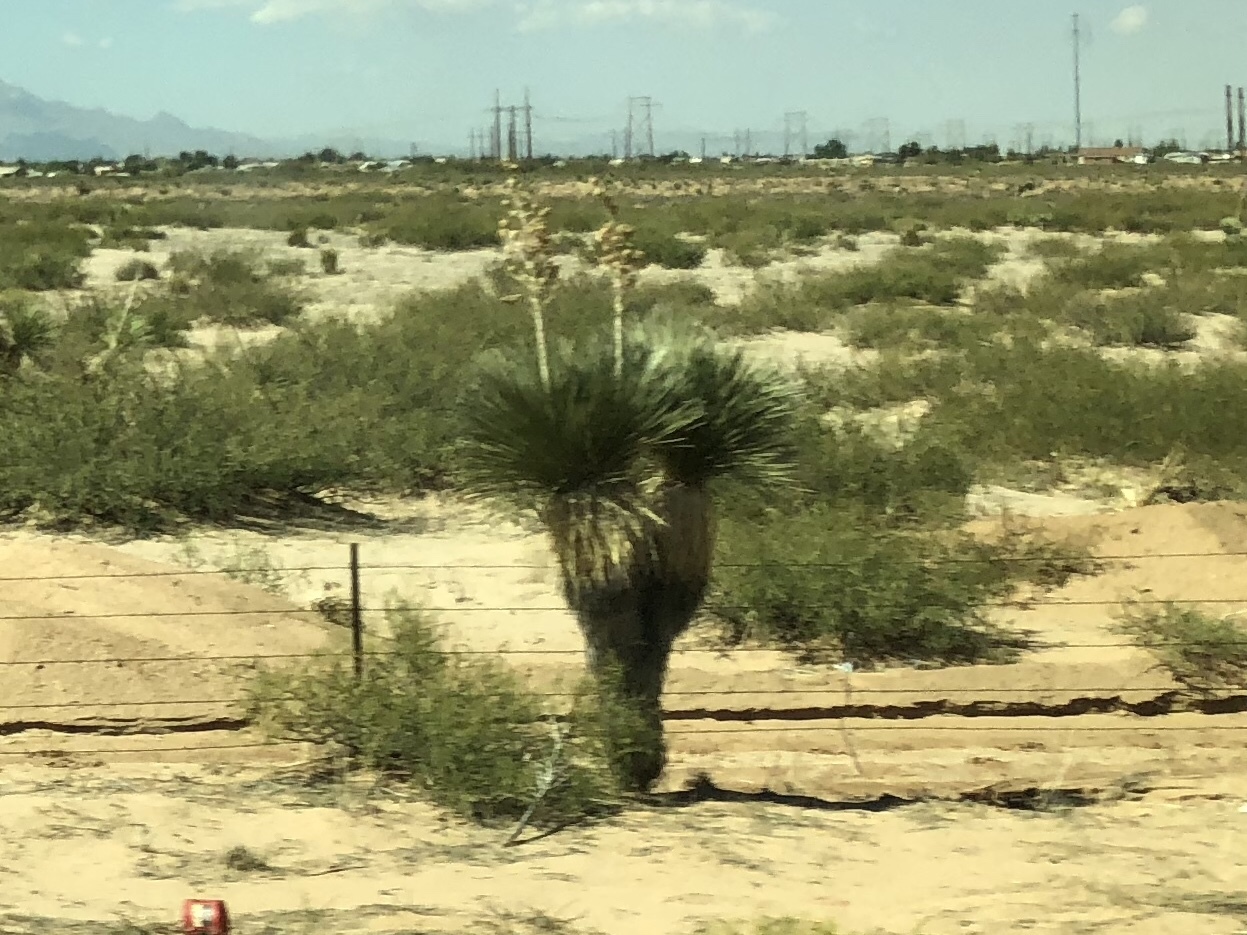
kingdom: Plantae
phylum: Tracheophyta
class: Liliopsida
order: Asparagales
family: Asparagaceae
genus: Yucca
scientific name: Yucca elata
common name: Palmella
